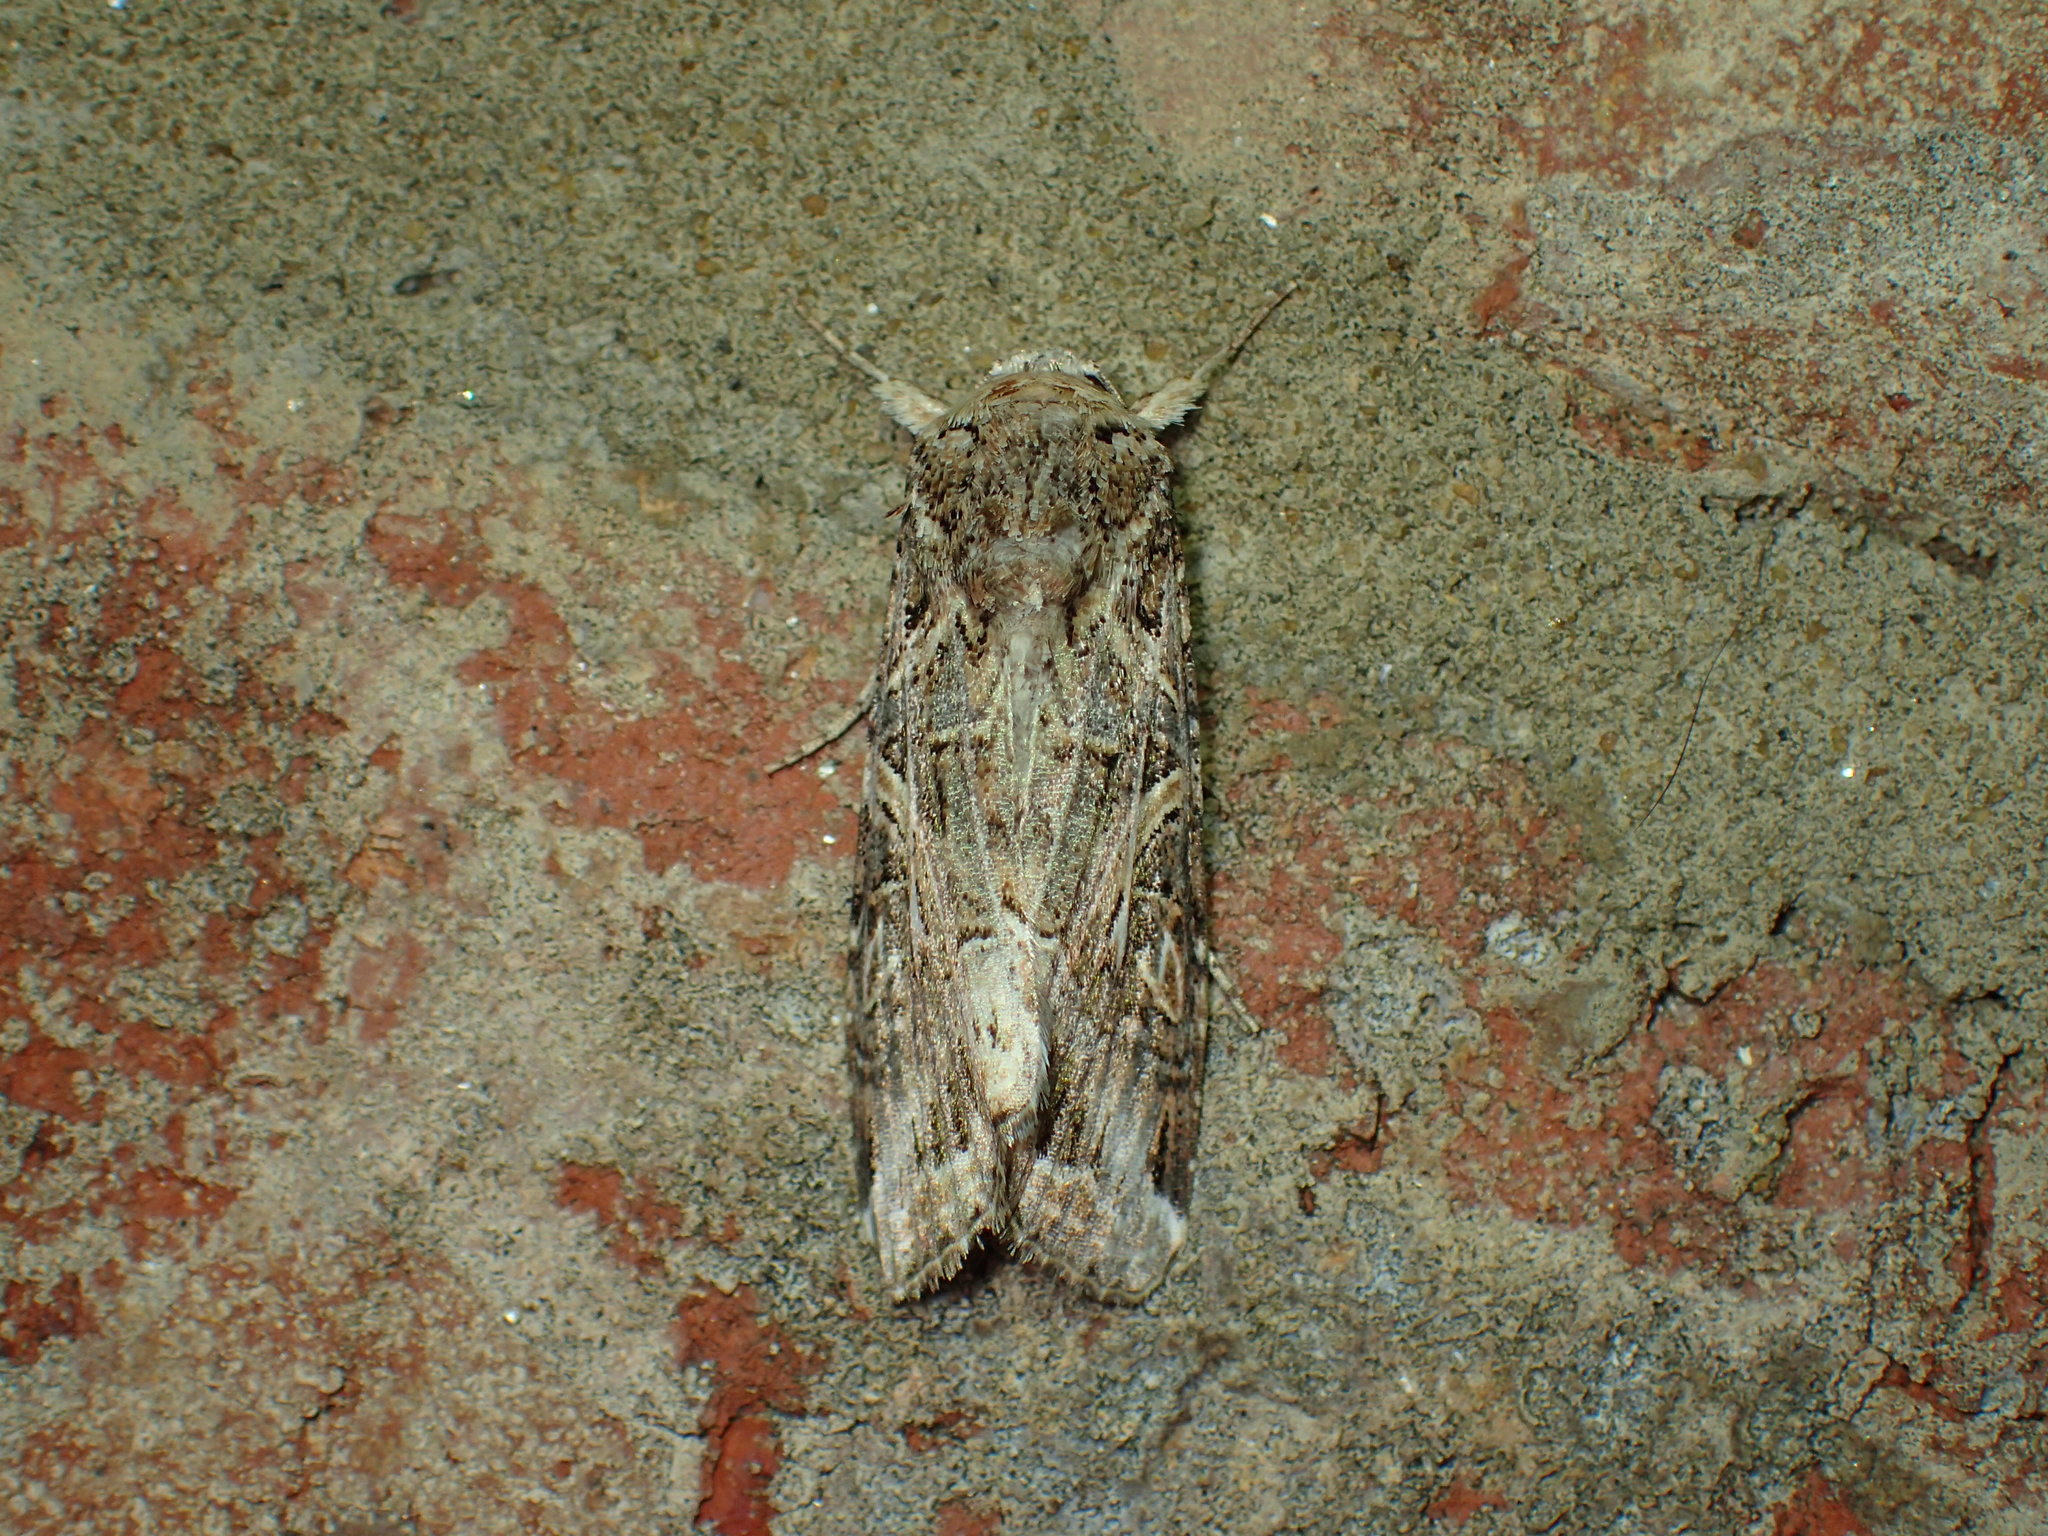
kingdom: Animalia
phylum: Arthropoda
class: Insecta
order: Lepidoptera
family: Noctuidae
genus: Spodoptera
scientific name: Spodoptera ornithogalli
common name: Yellow-striped armyworm
